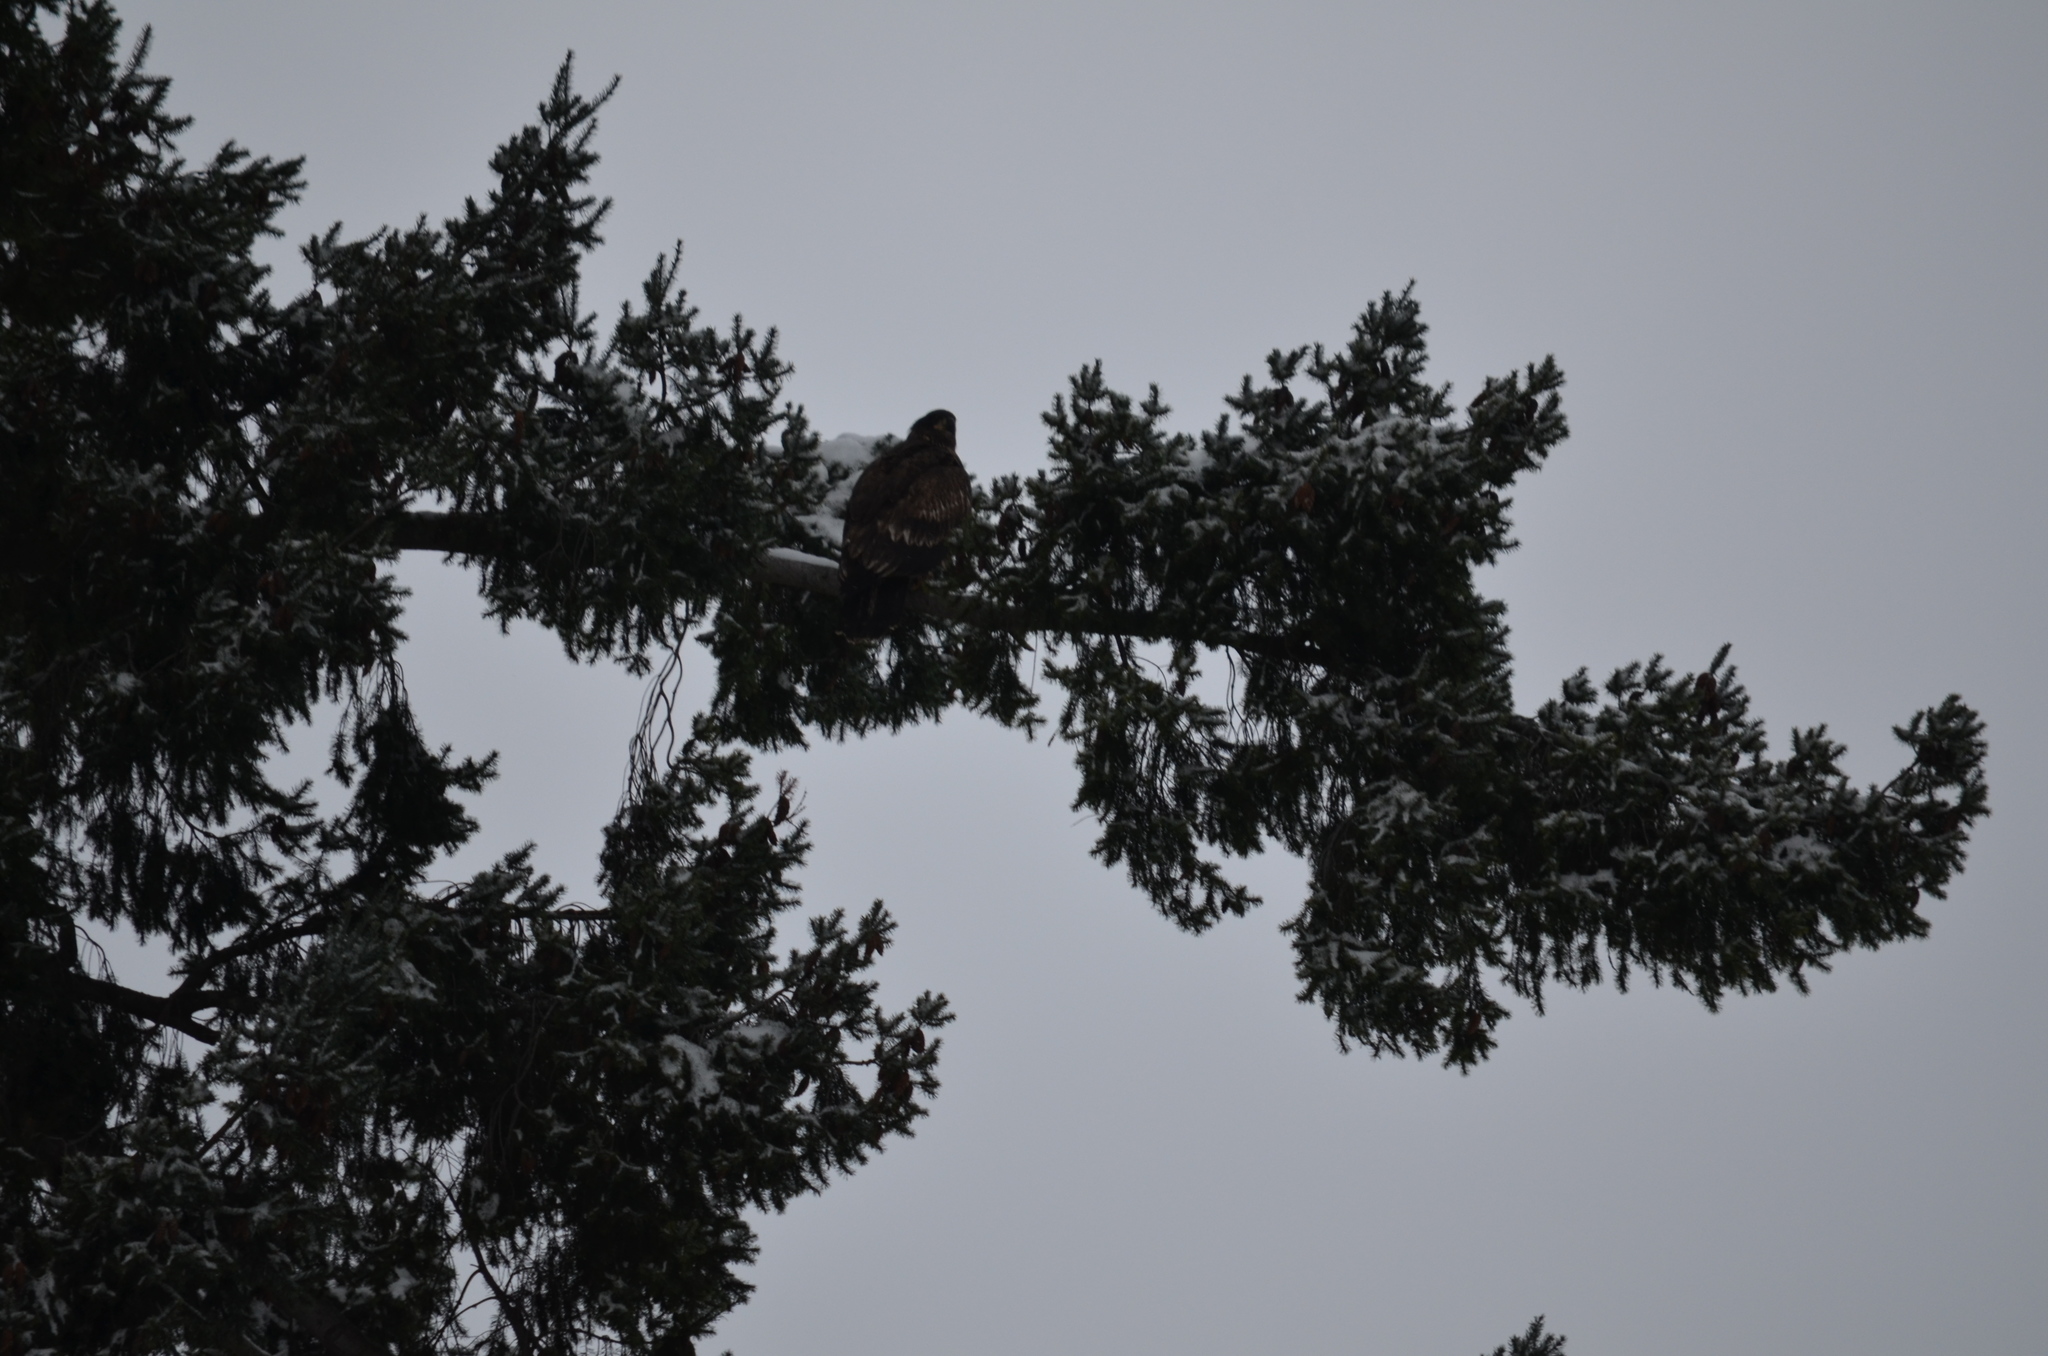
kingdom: Animalia
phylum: Chordata
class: Aves
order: Accipitriformes
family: Accipitridae
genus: Haliaeetus
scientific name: Haliaeetus leucocephalus
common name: Bald eagle
